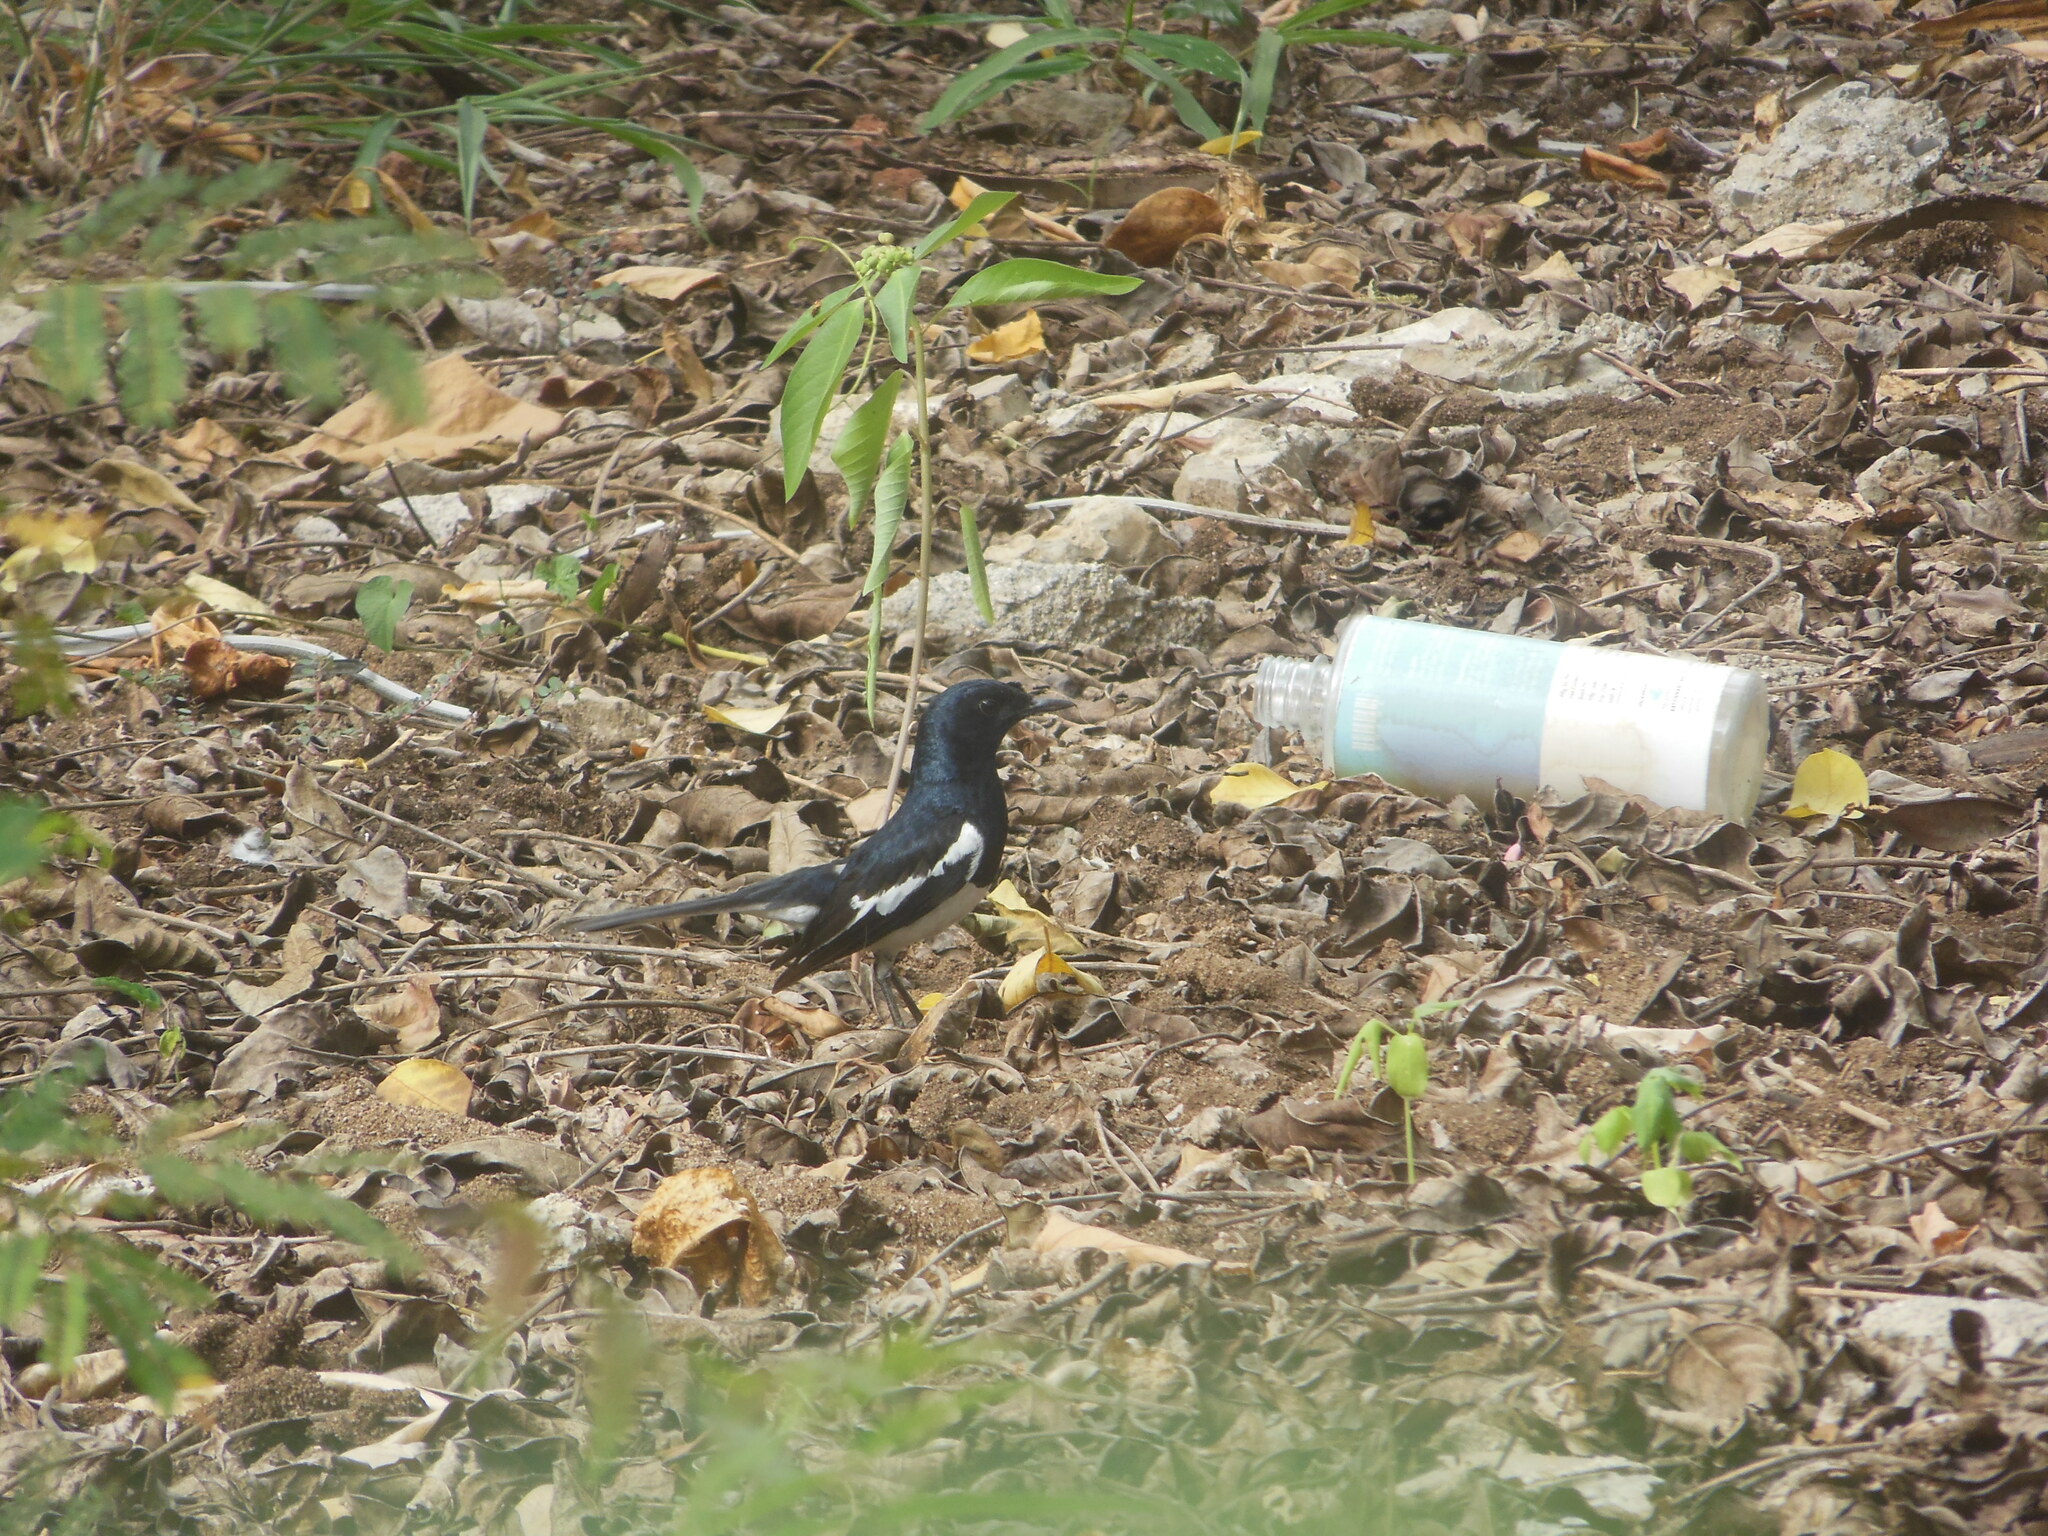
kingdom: Animalia
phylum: Chordata
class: Aves
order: Passeriformes
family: Muscicapidae
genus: Copsychus
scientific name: Copsychus saularis
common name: Oriental magpie-robin
